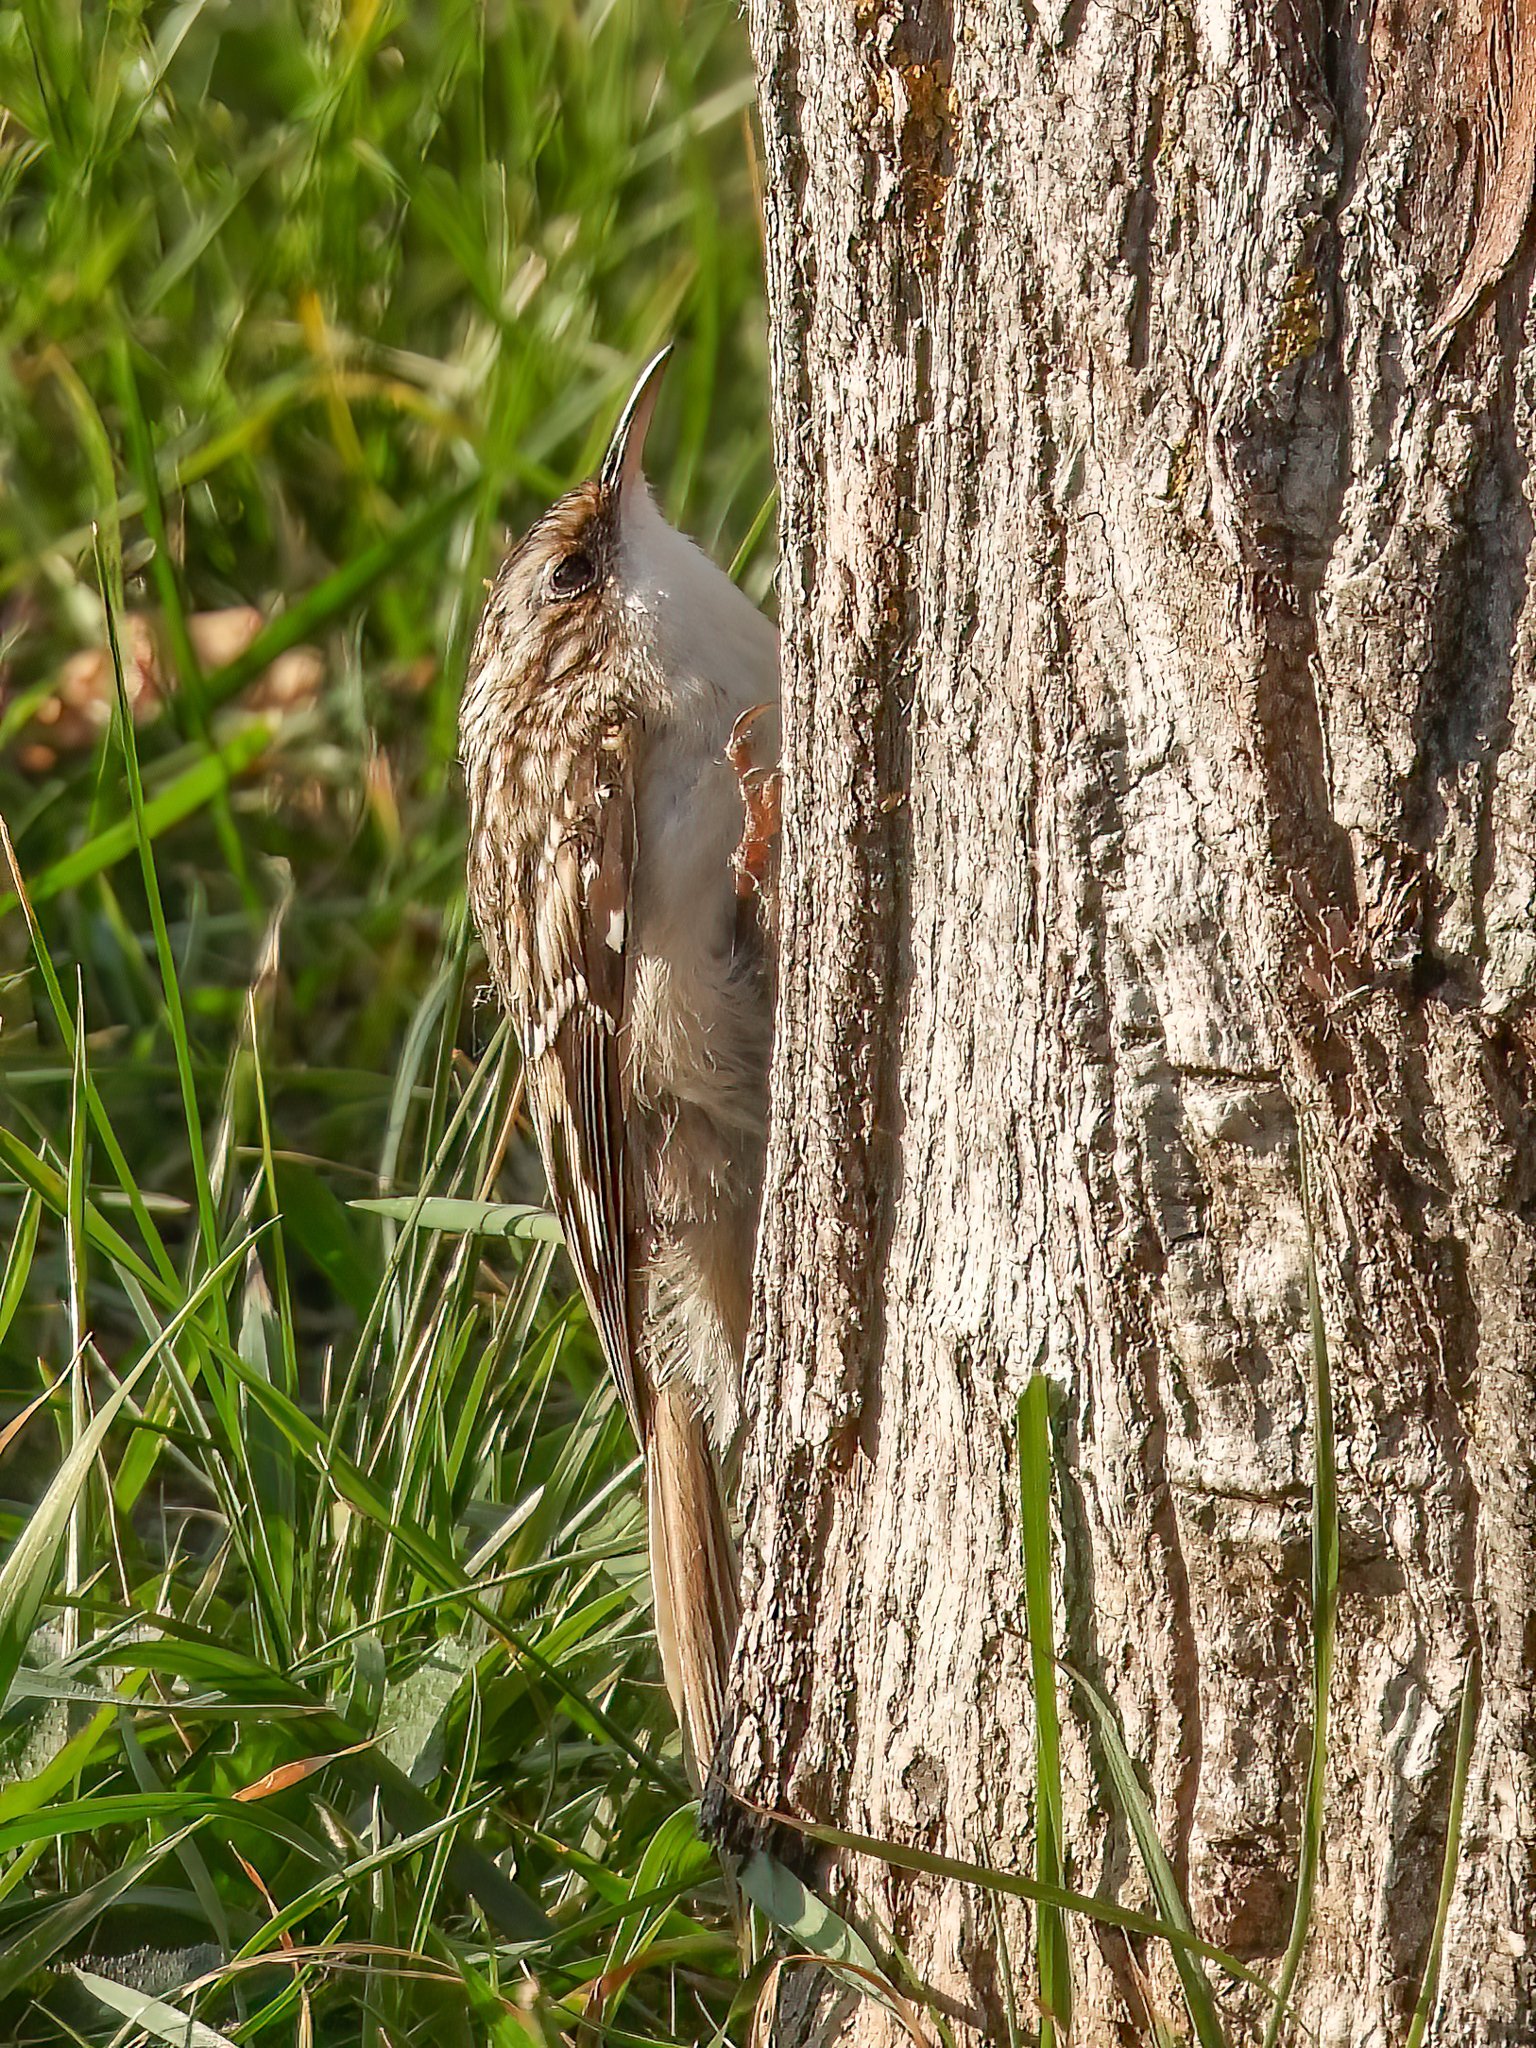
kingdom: Animalia
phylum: Chordata
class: Aves
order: Passeriformes
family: Certhiidae
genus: Certhia
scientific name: Certhia americana
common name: Brown creeper
